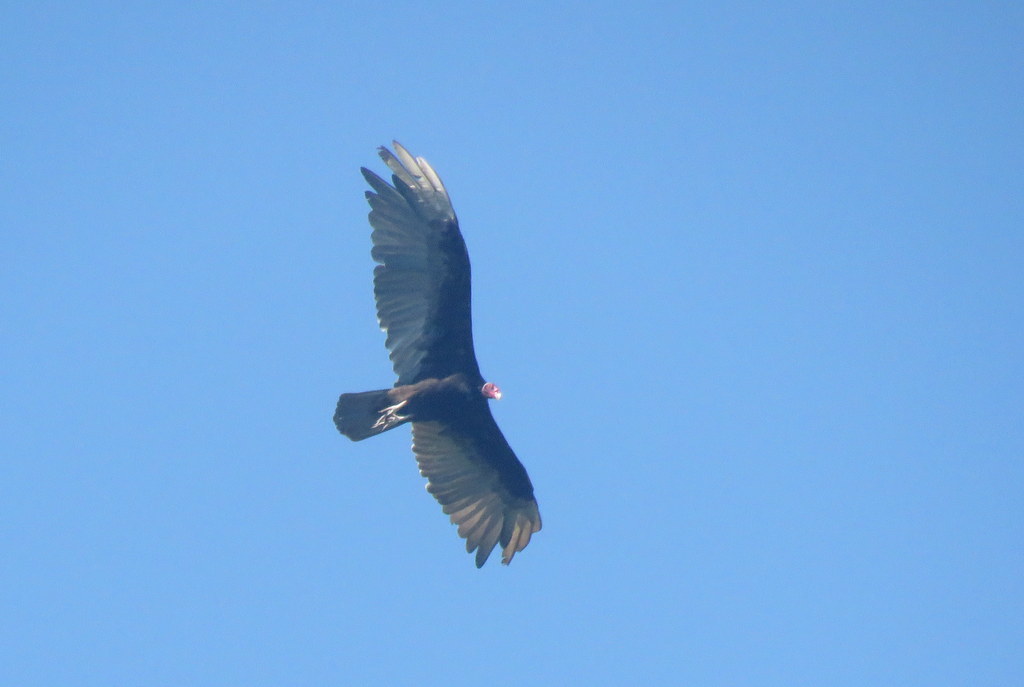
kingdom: Animalia
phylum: Chordata
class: Aves
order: Accipitriformes
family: Cathartidae
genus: Cathartes
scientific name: Cathartes aura
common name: Turkey vulture
